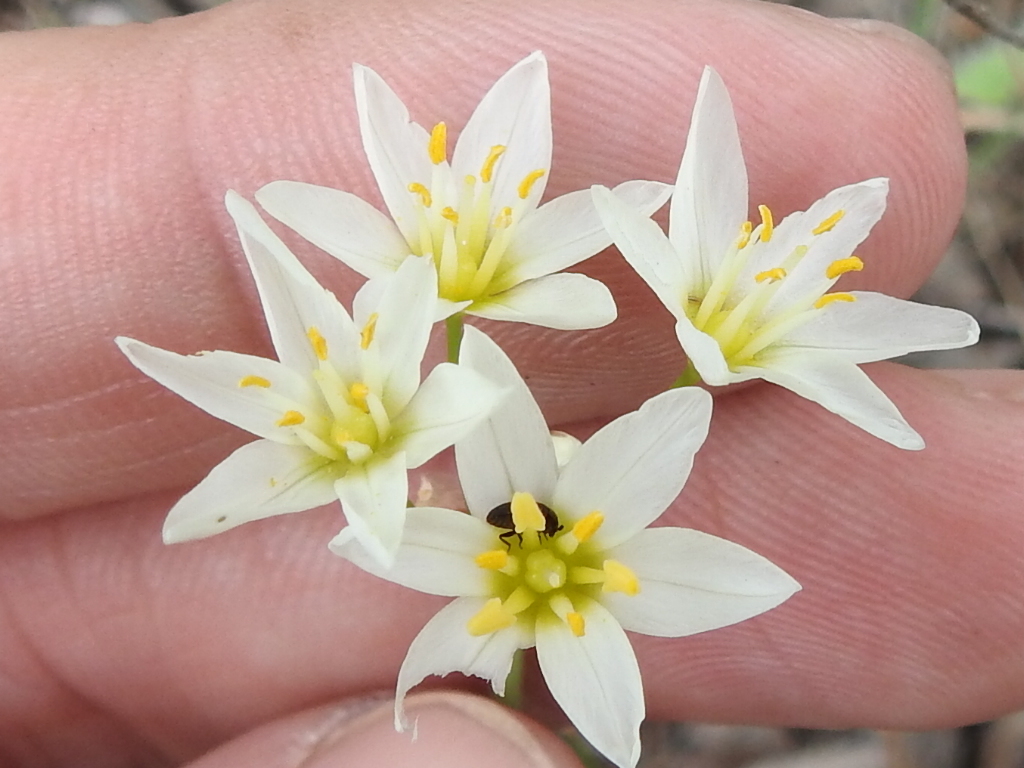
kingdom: Plantae
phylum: Tracheophyta
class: Liliopsida
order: Asparagales
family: Amaryllidaceae
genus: Nothoscordum
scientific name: Nothoscordum bivalve
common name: Crow-poison
